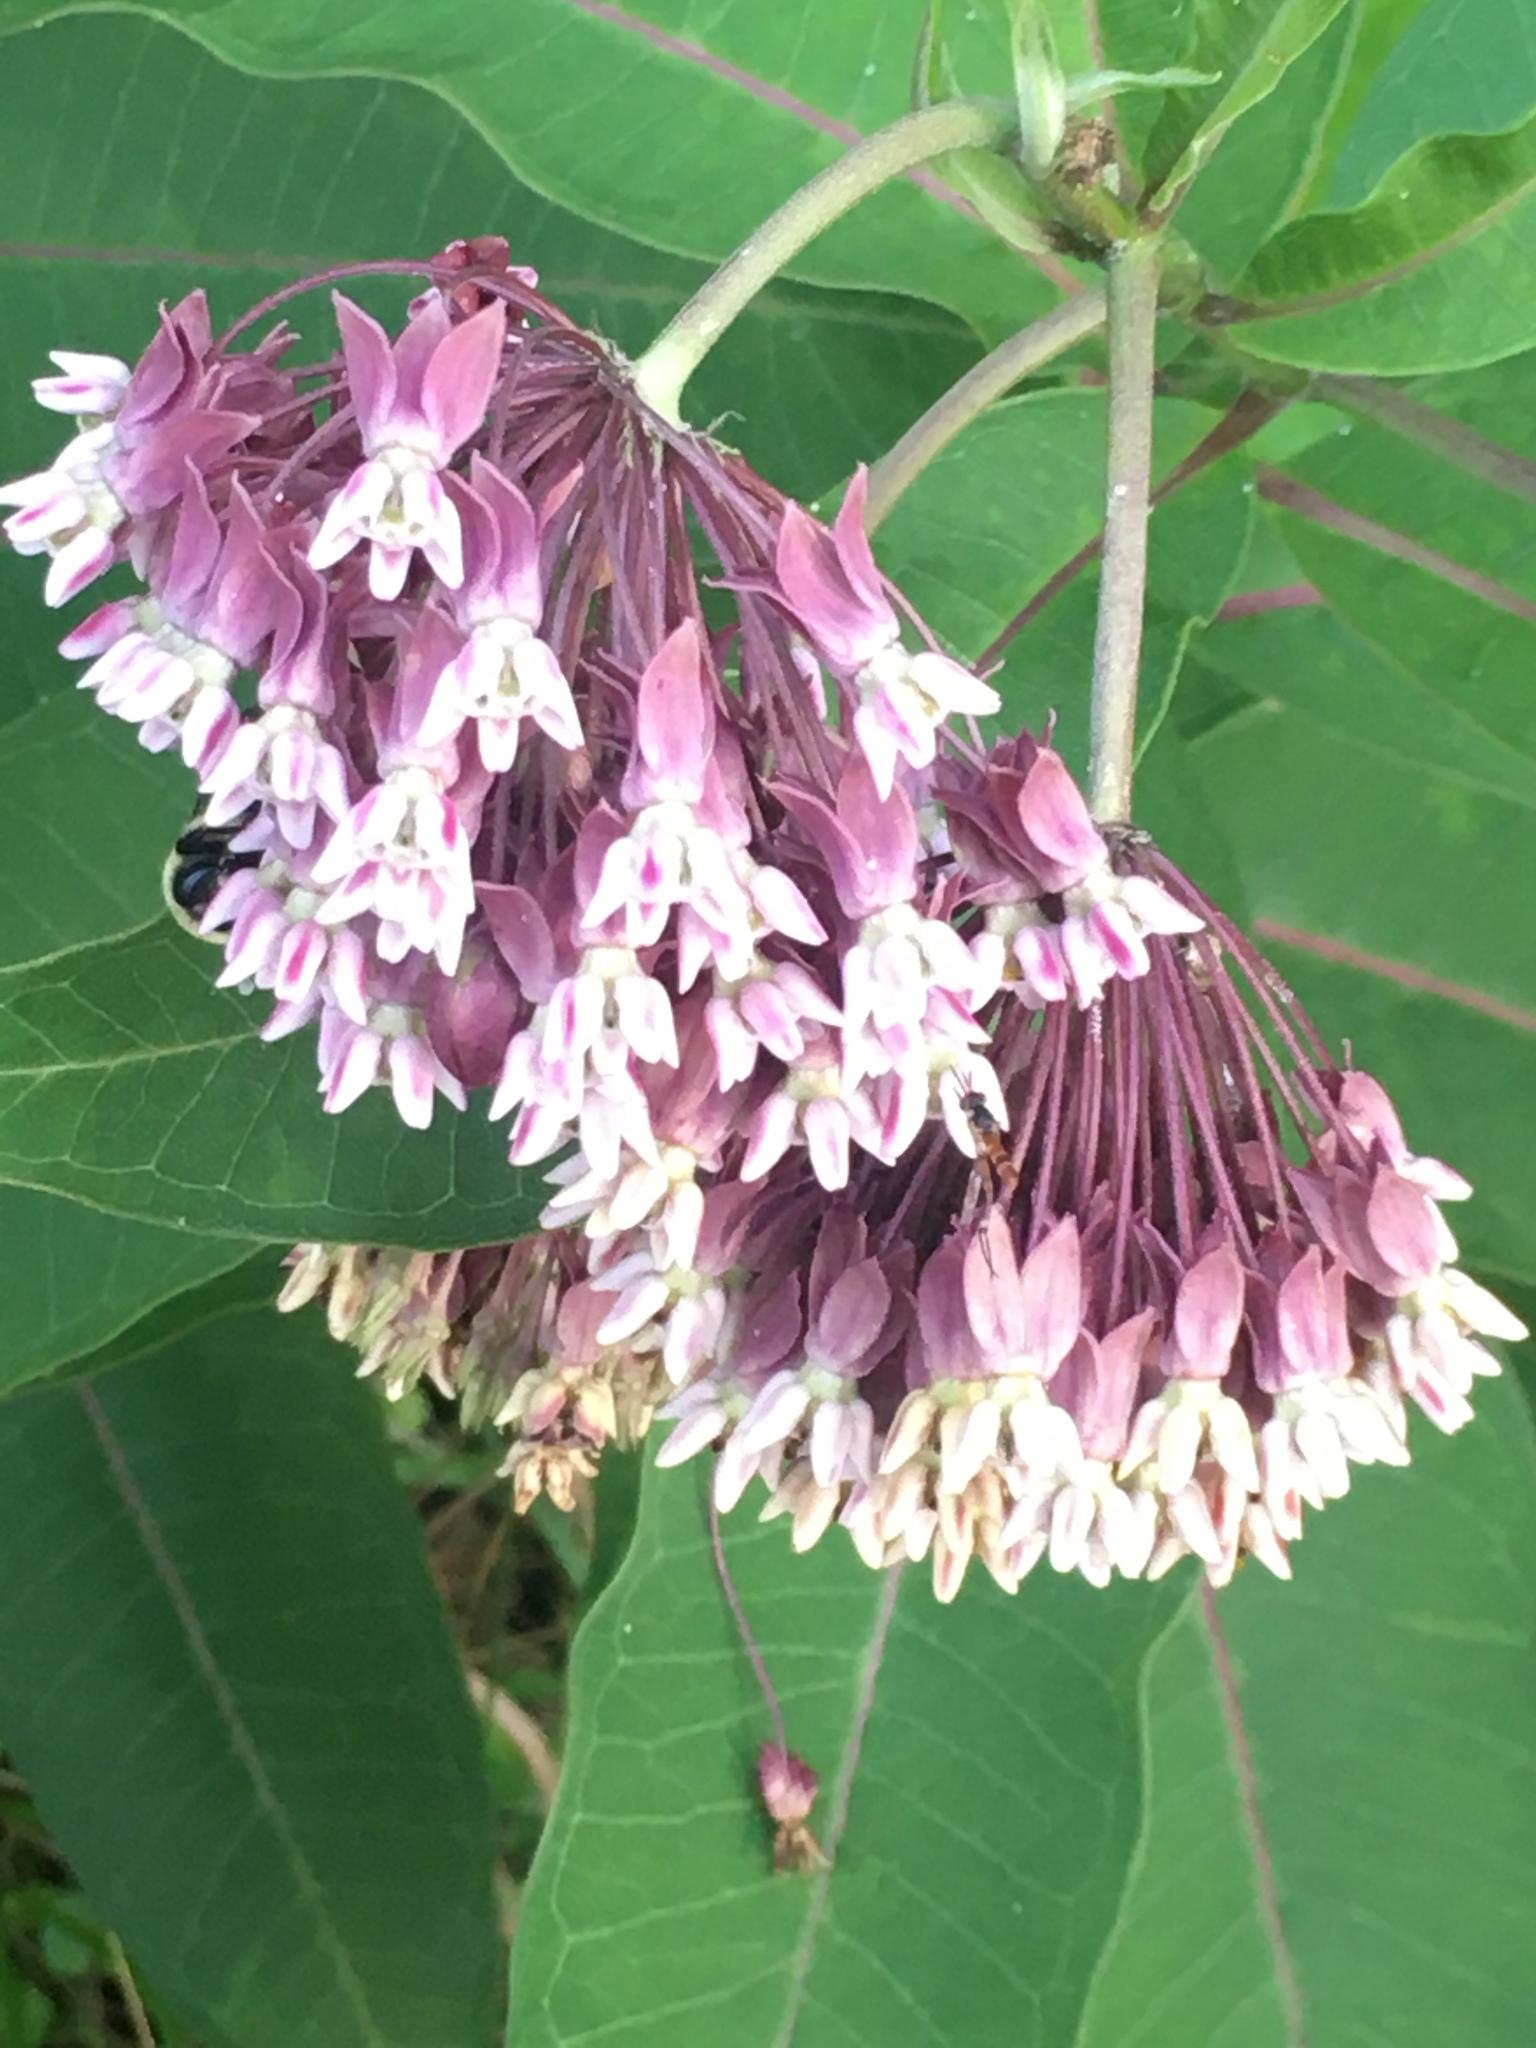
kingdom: Plantae
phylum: Tracheophyta
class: Magnoliopsida
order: Gentianales
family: Apocynaceae
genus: Asclepias
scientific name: Asclepias syriaca
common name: Common milkweed
